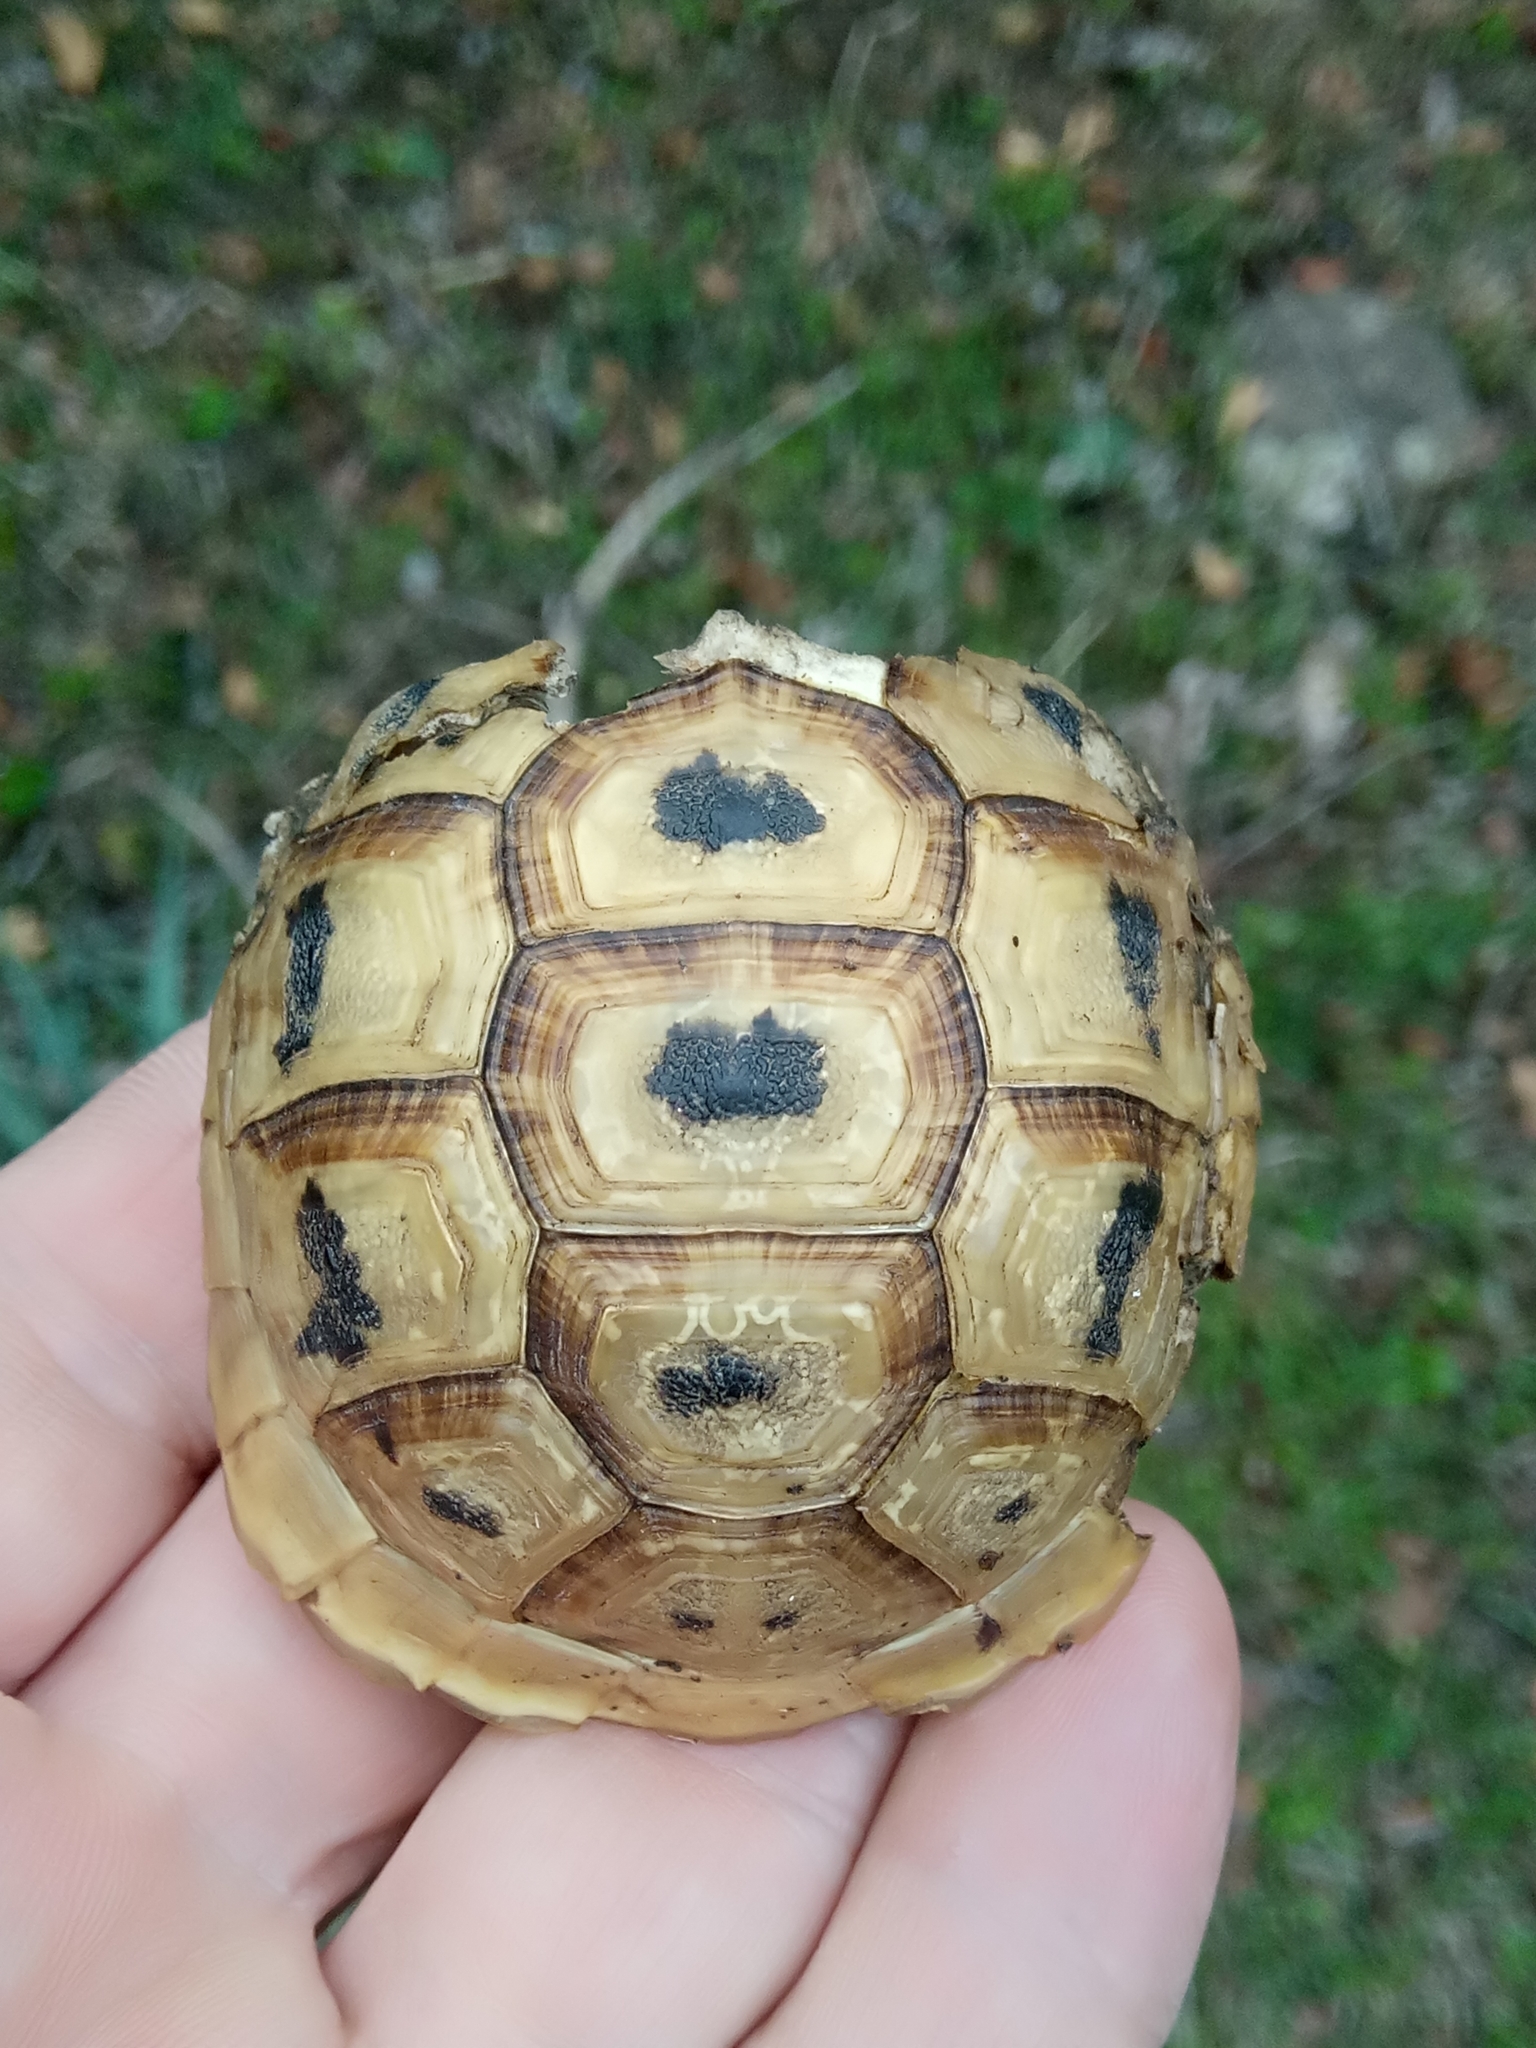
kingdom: Animalia
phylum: Chordata
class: Testudines
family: Testudinidae
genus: Testudo
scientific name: Testudo graeca
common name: Common tortoise
